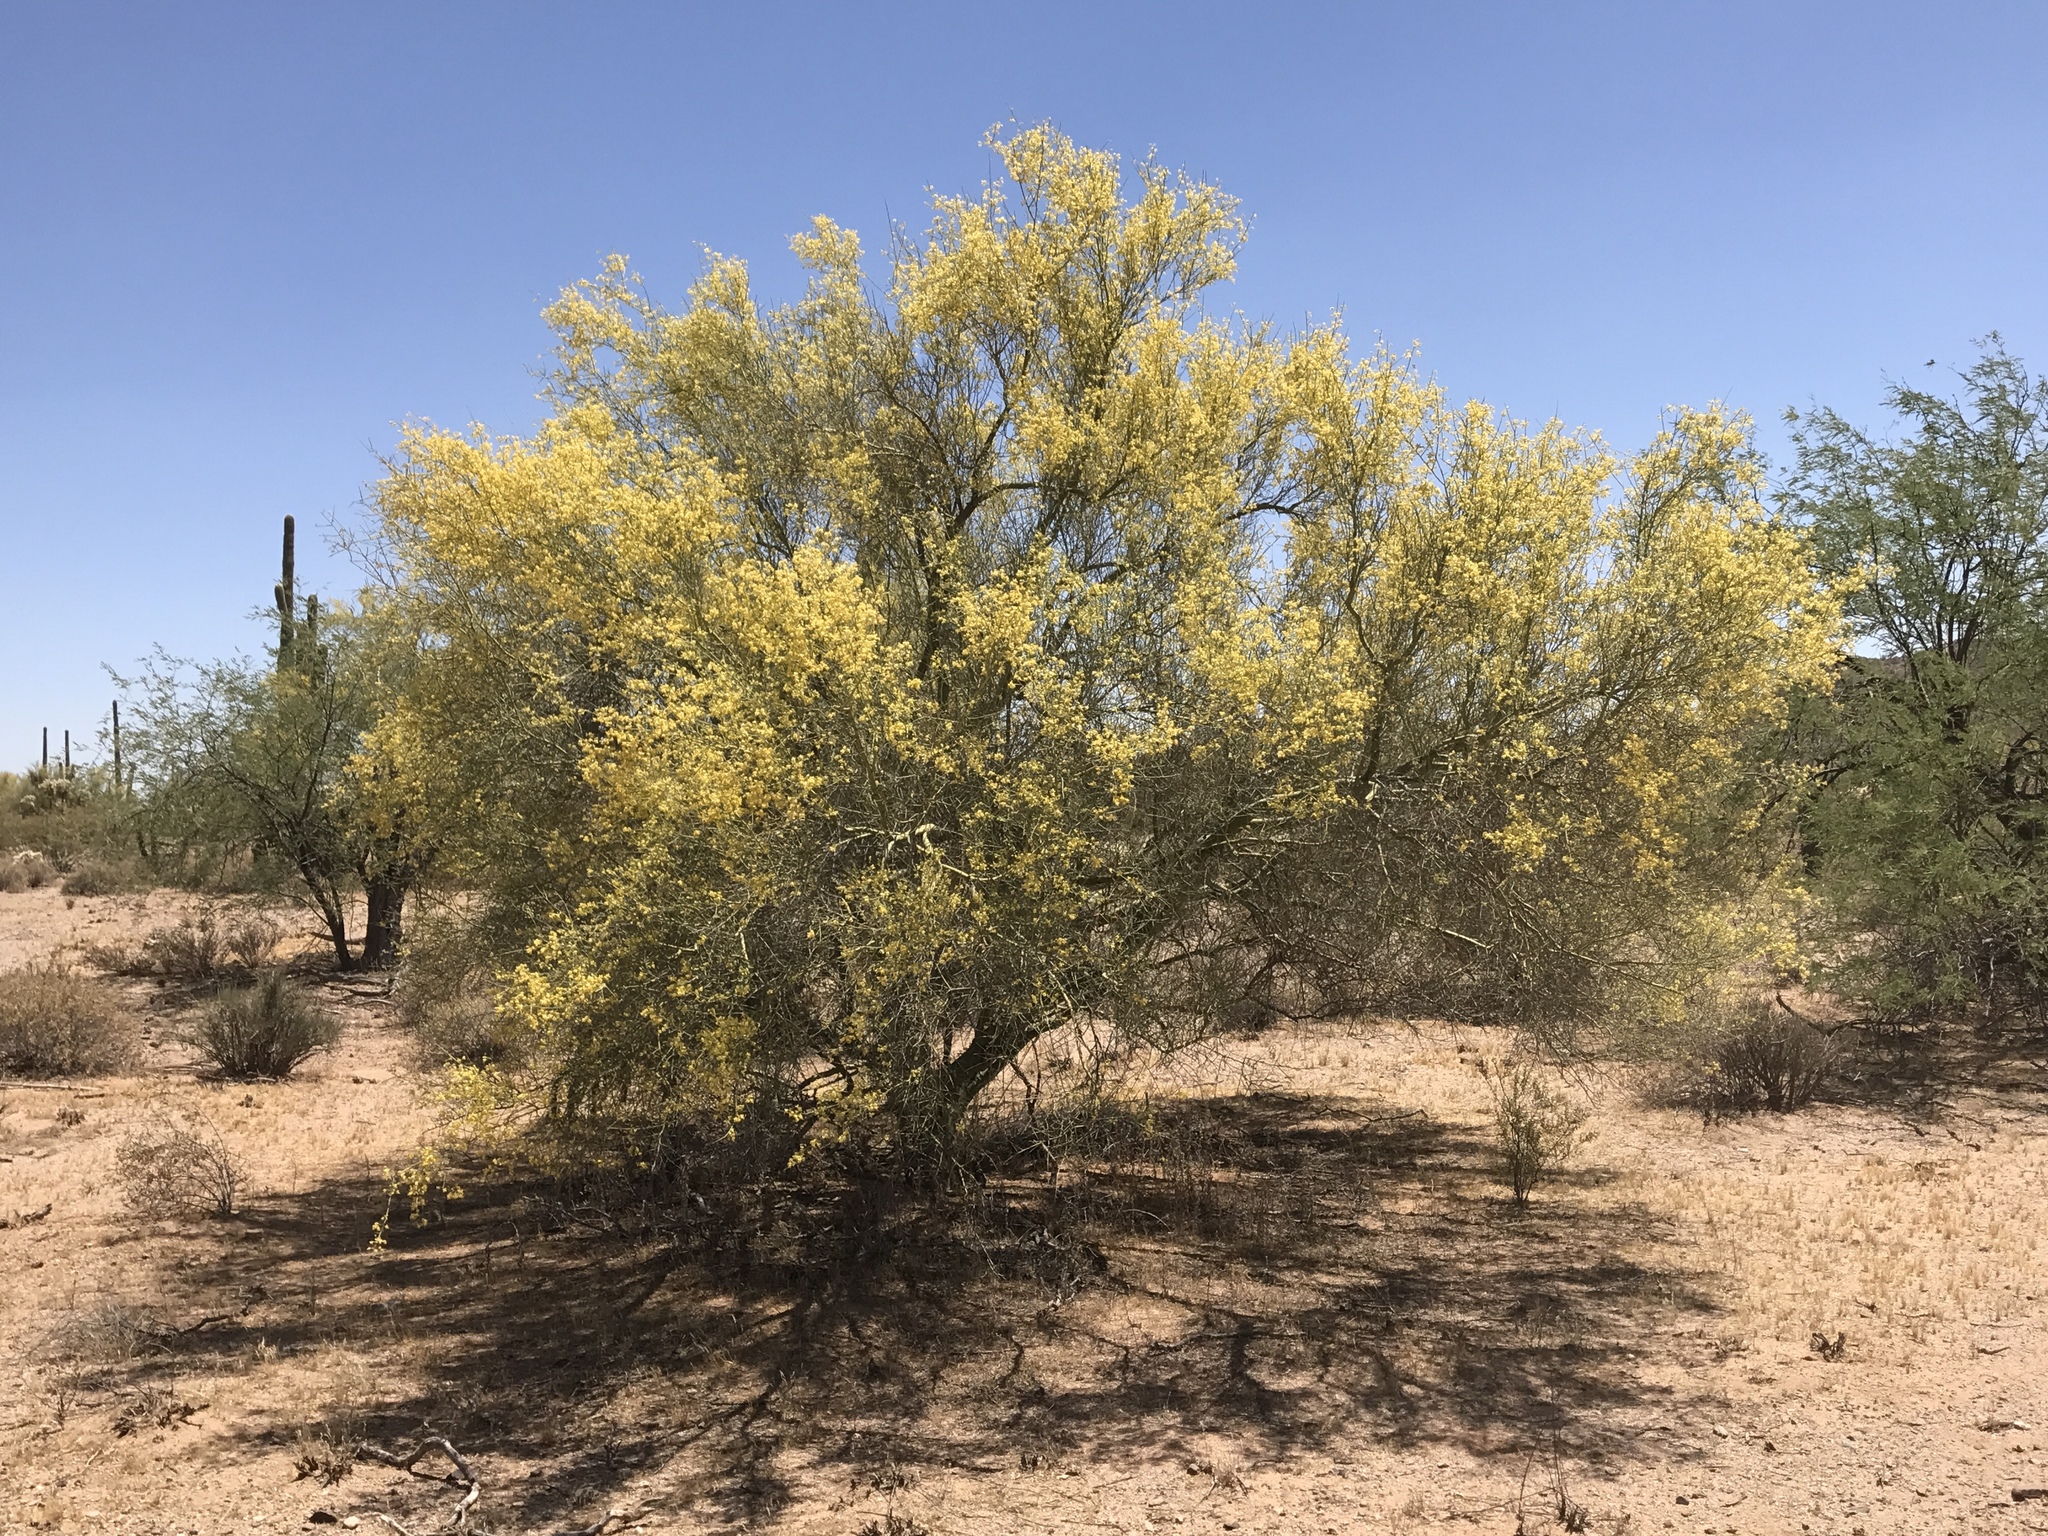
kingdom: Plantae
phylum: Tracheophyta
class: Magnoliopsida
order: Fabales
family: Fabaceae
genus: Parkinsonia
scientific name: Parkinsonia florida
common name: Blue paloverde
